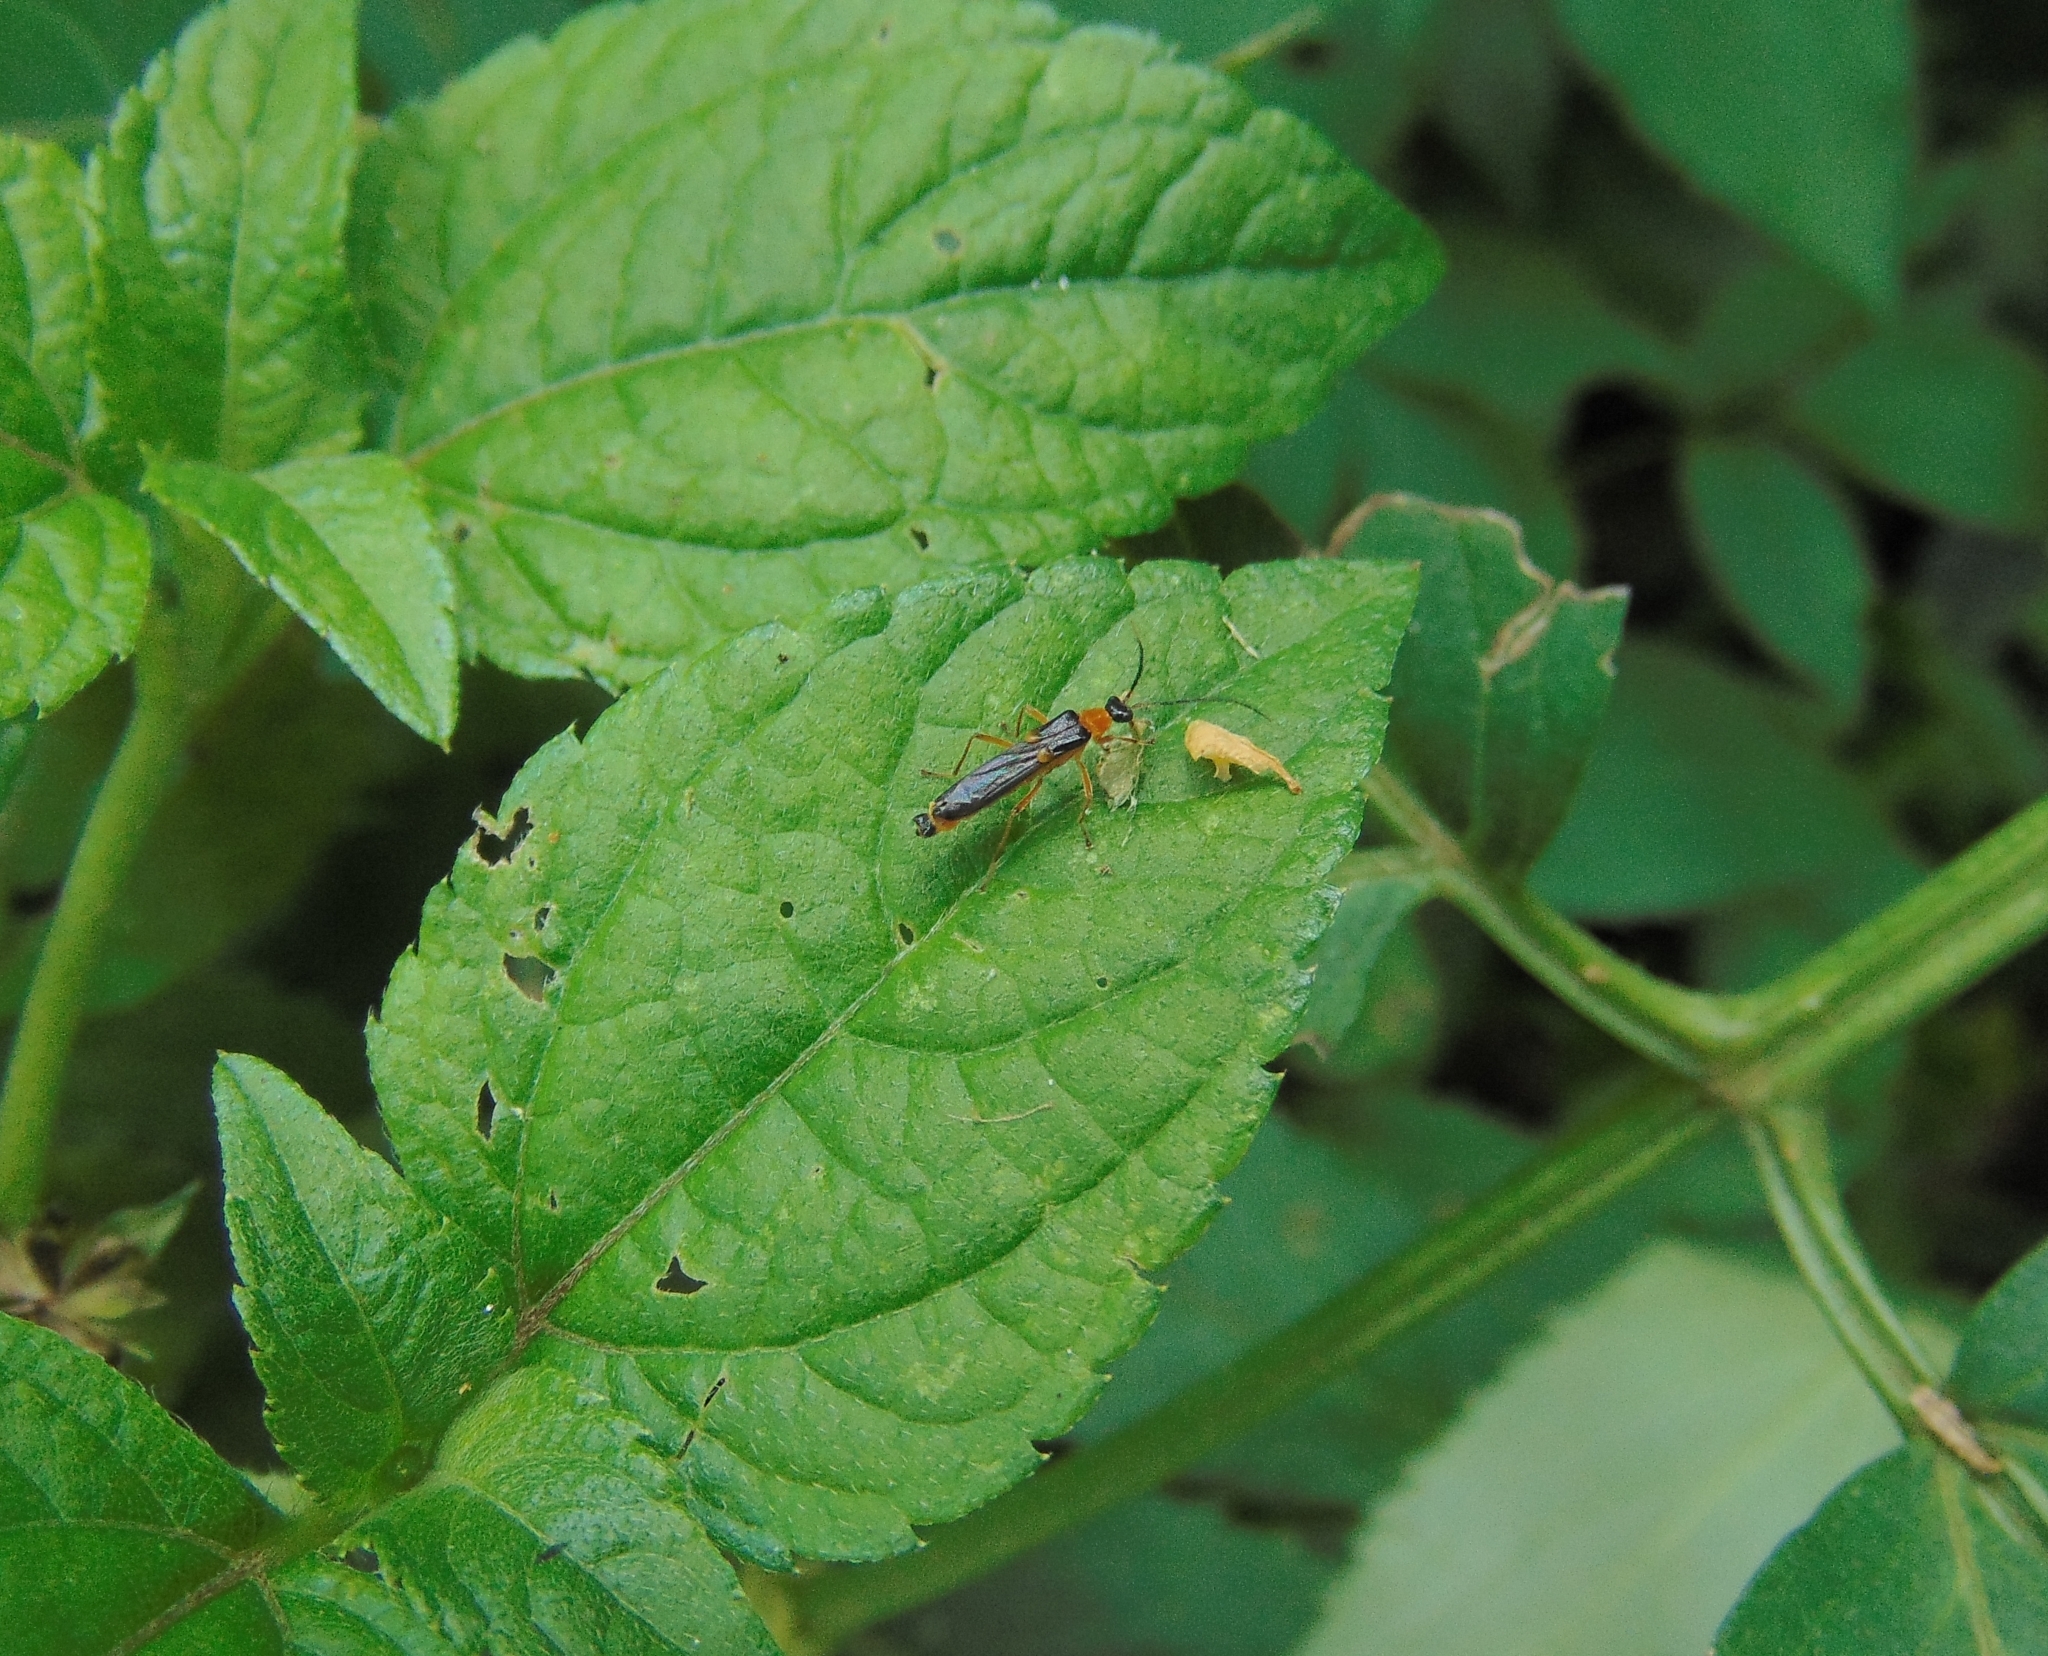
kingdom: Animalia
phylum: Arthropoda
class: Insecta
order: Coleoptera
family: Cantharidae
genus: Macromalthinus
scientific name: Macromalthinus
